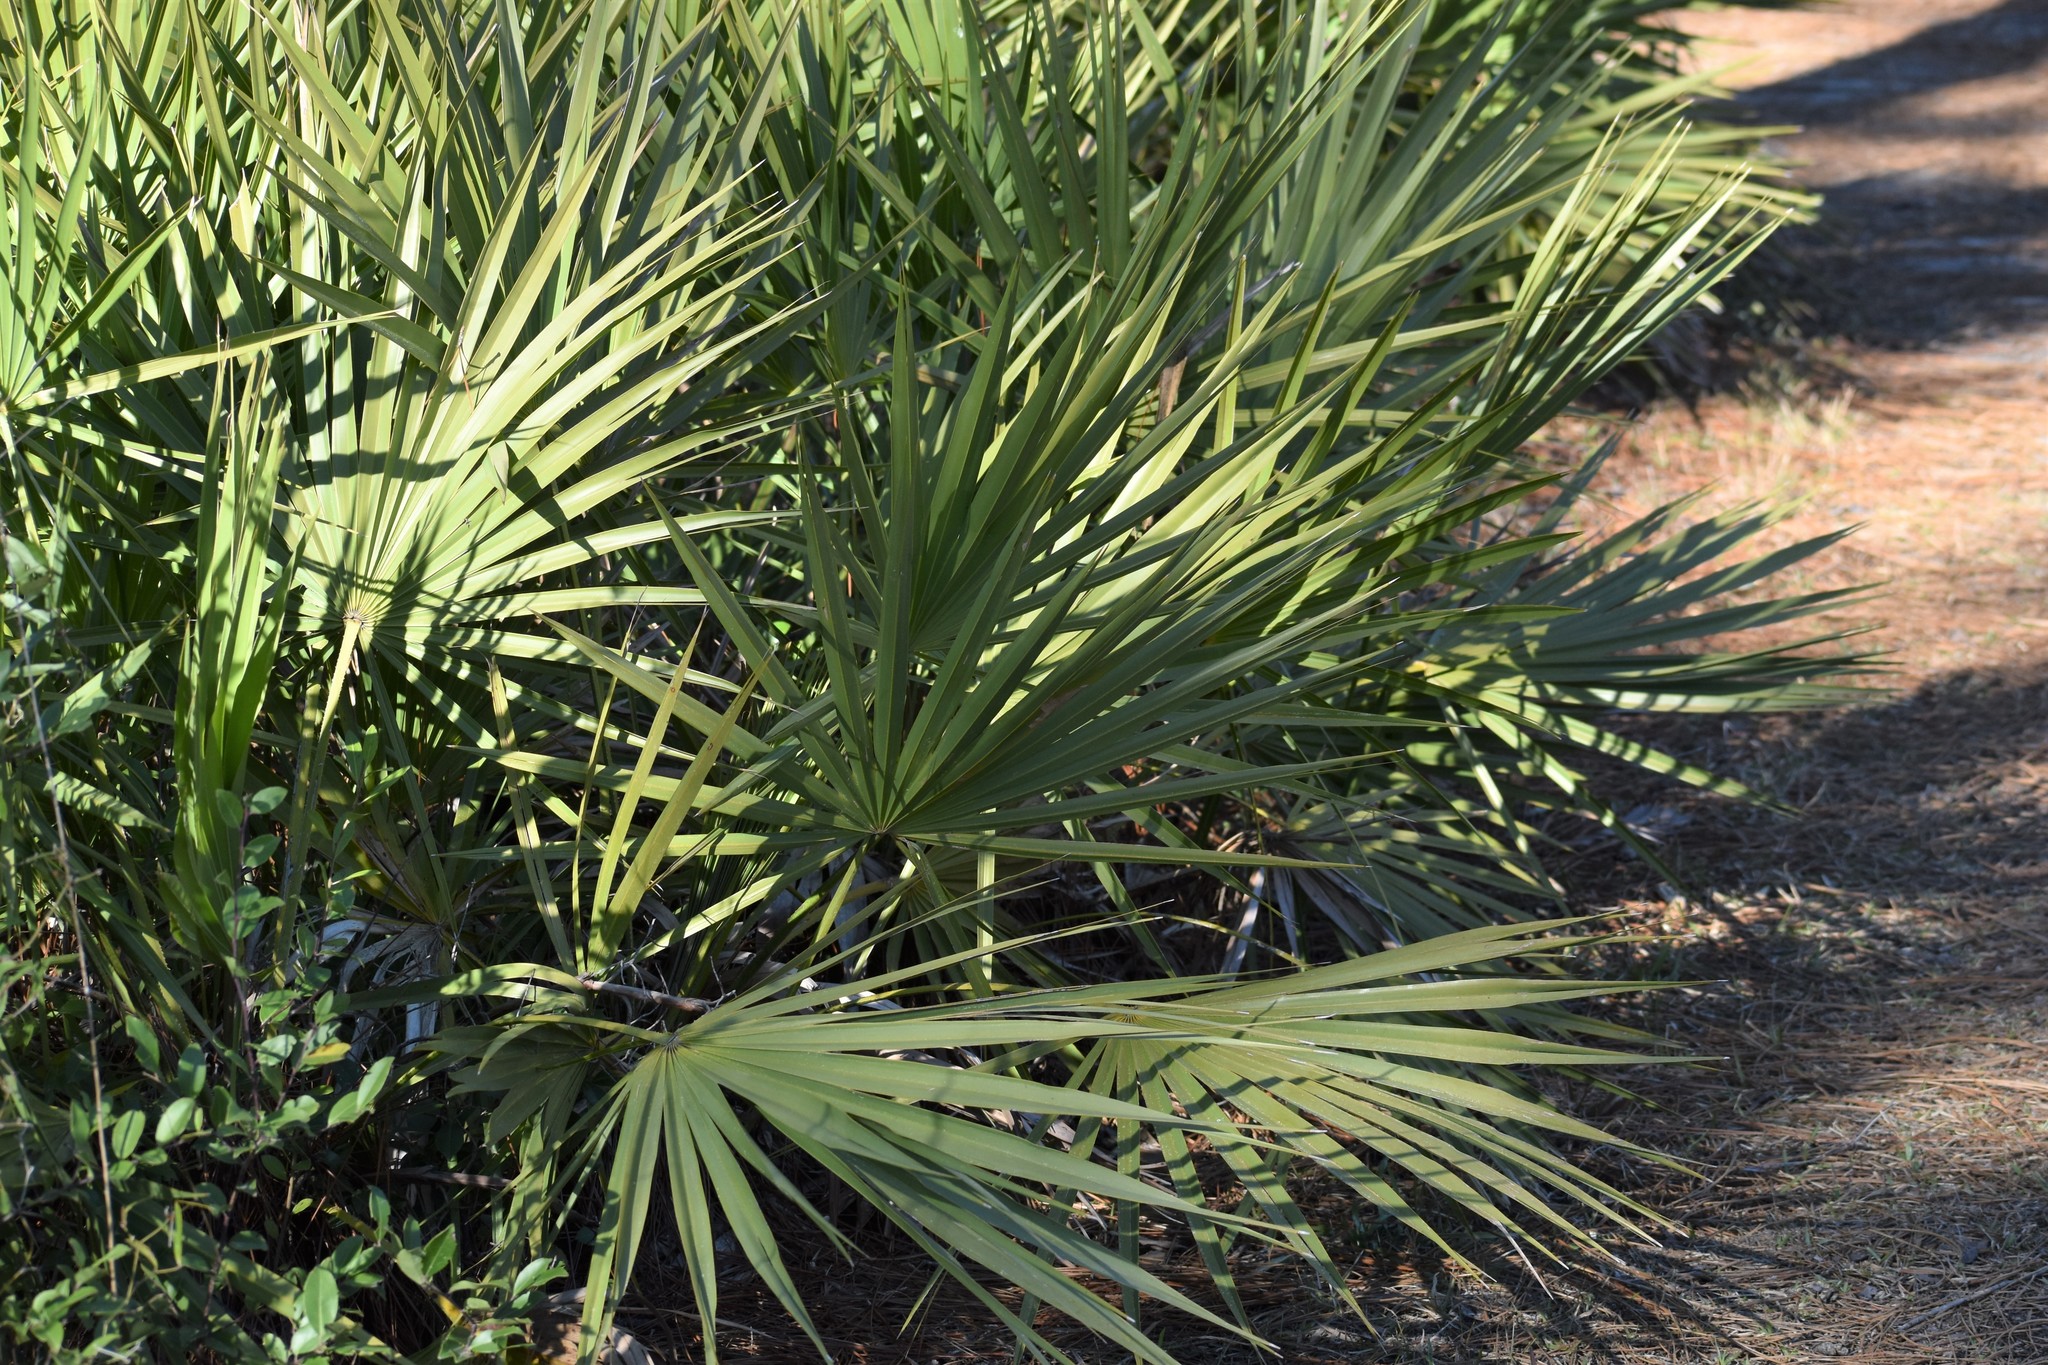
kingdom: Plantae
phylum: Tracheophyta
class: Liliopsida
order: Arecales
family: Arecaceae
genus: Serenoa
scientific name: Serenoa repens
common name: Saw-palmetto
